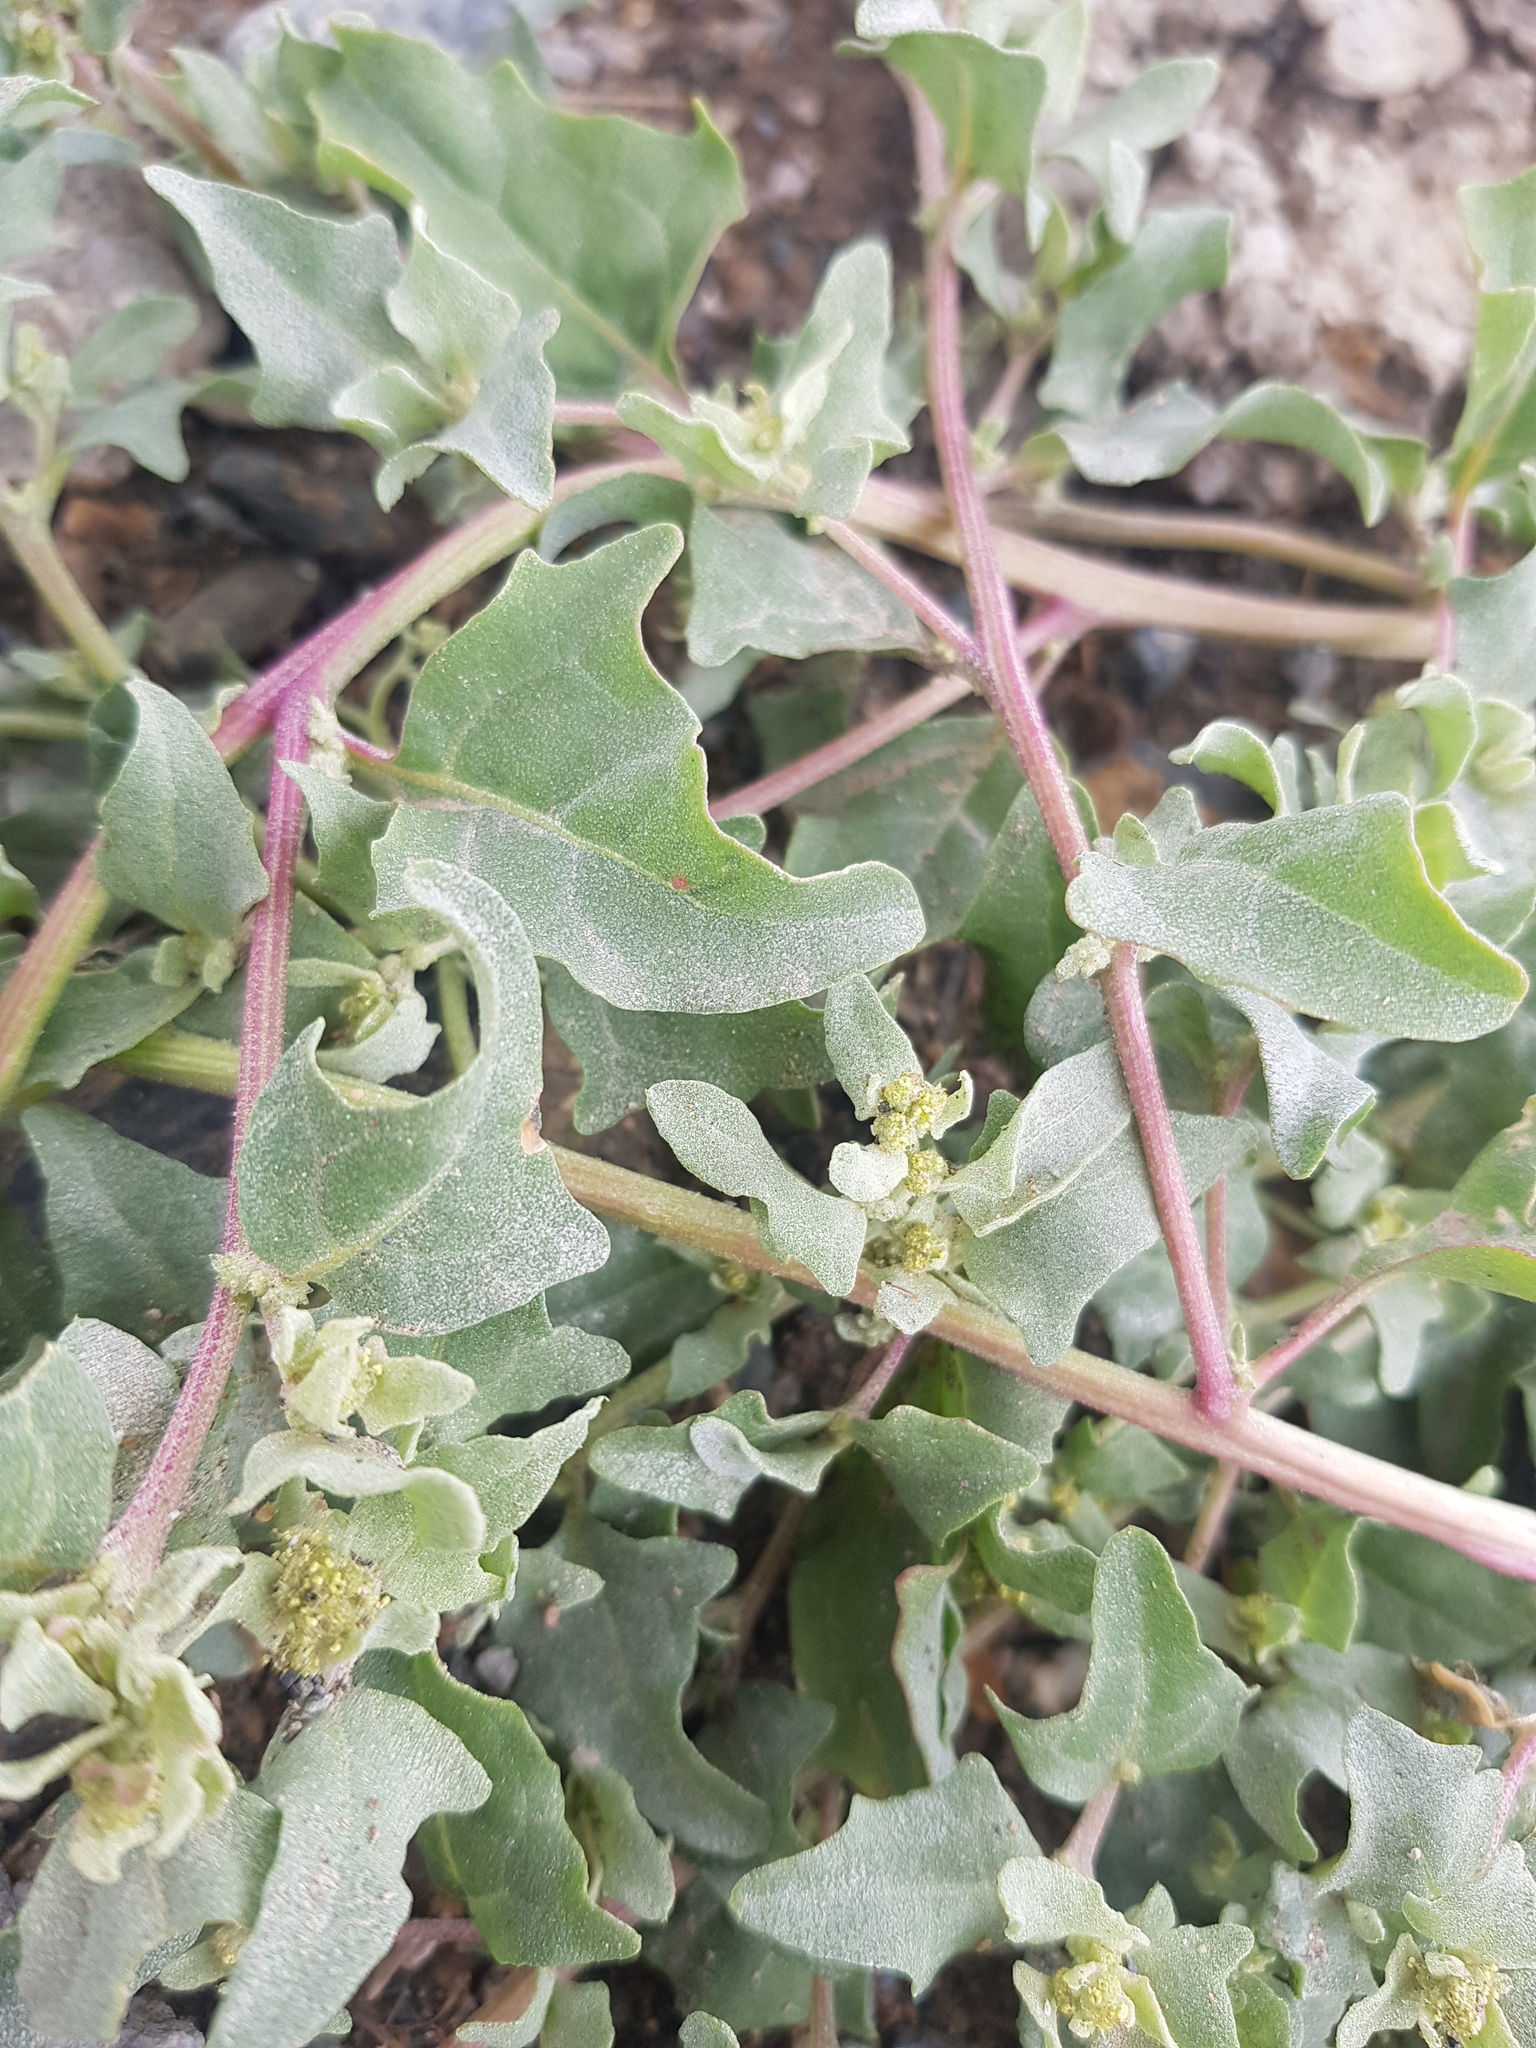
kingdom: Plantae
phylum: Tracheophyta
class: Magnoliopsida
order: Caryophyllales
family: Amaranthaceae
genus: Atriplex
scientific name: Atriplex sibirica
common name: Siberian saltbush
